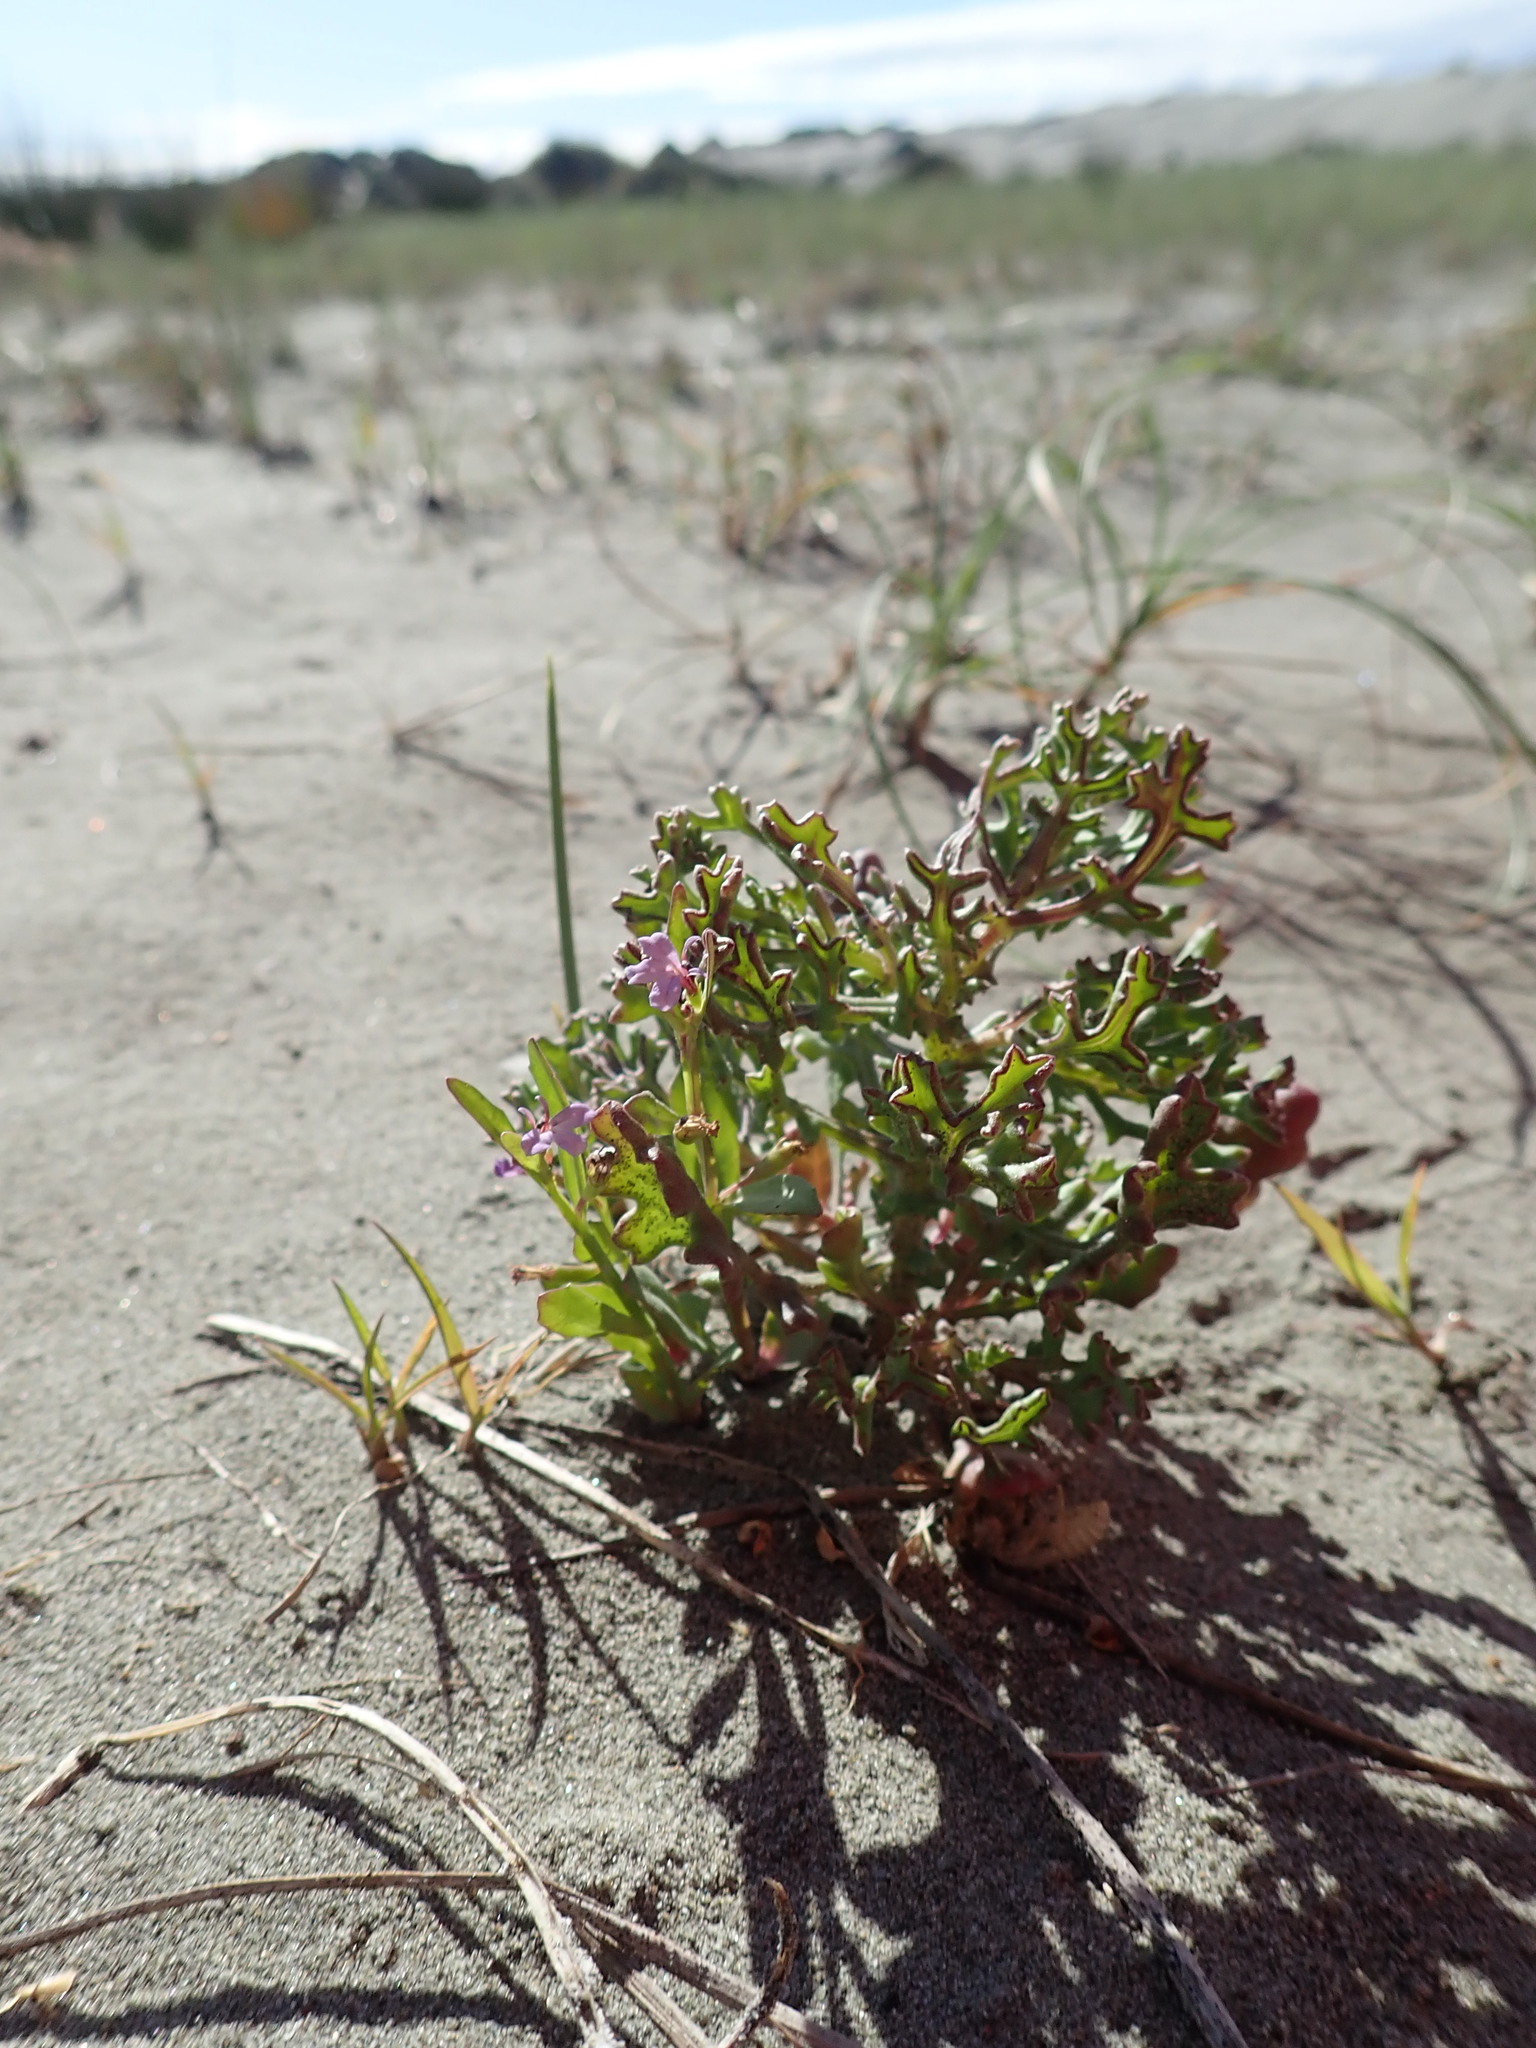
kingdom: Plantae
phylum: Tracheophyta
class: Magnoliopsida
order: Asterales
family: Asteraceae
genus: Senecio
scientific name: Senecio elegans
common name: Purple groundsel
